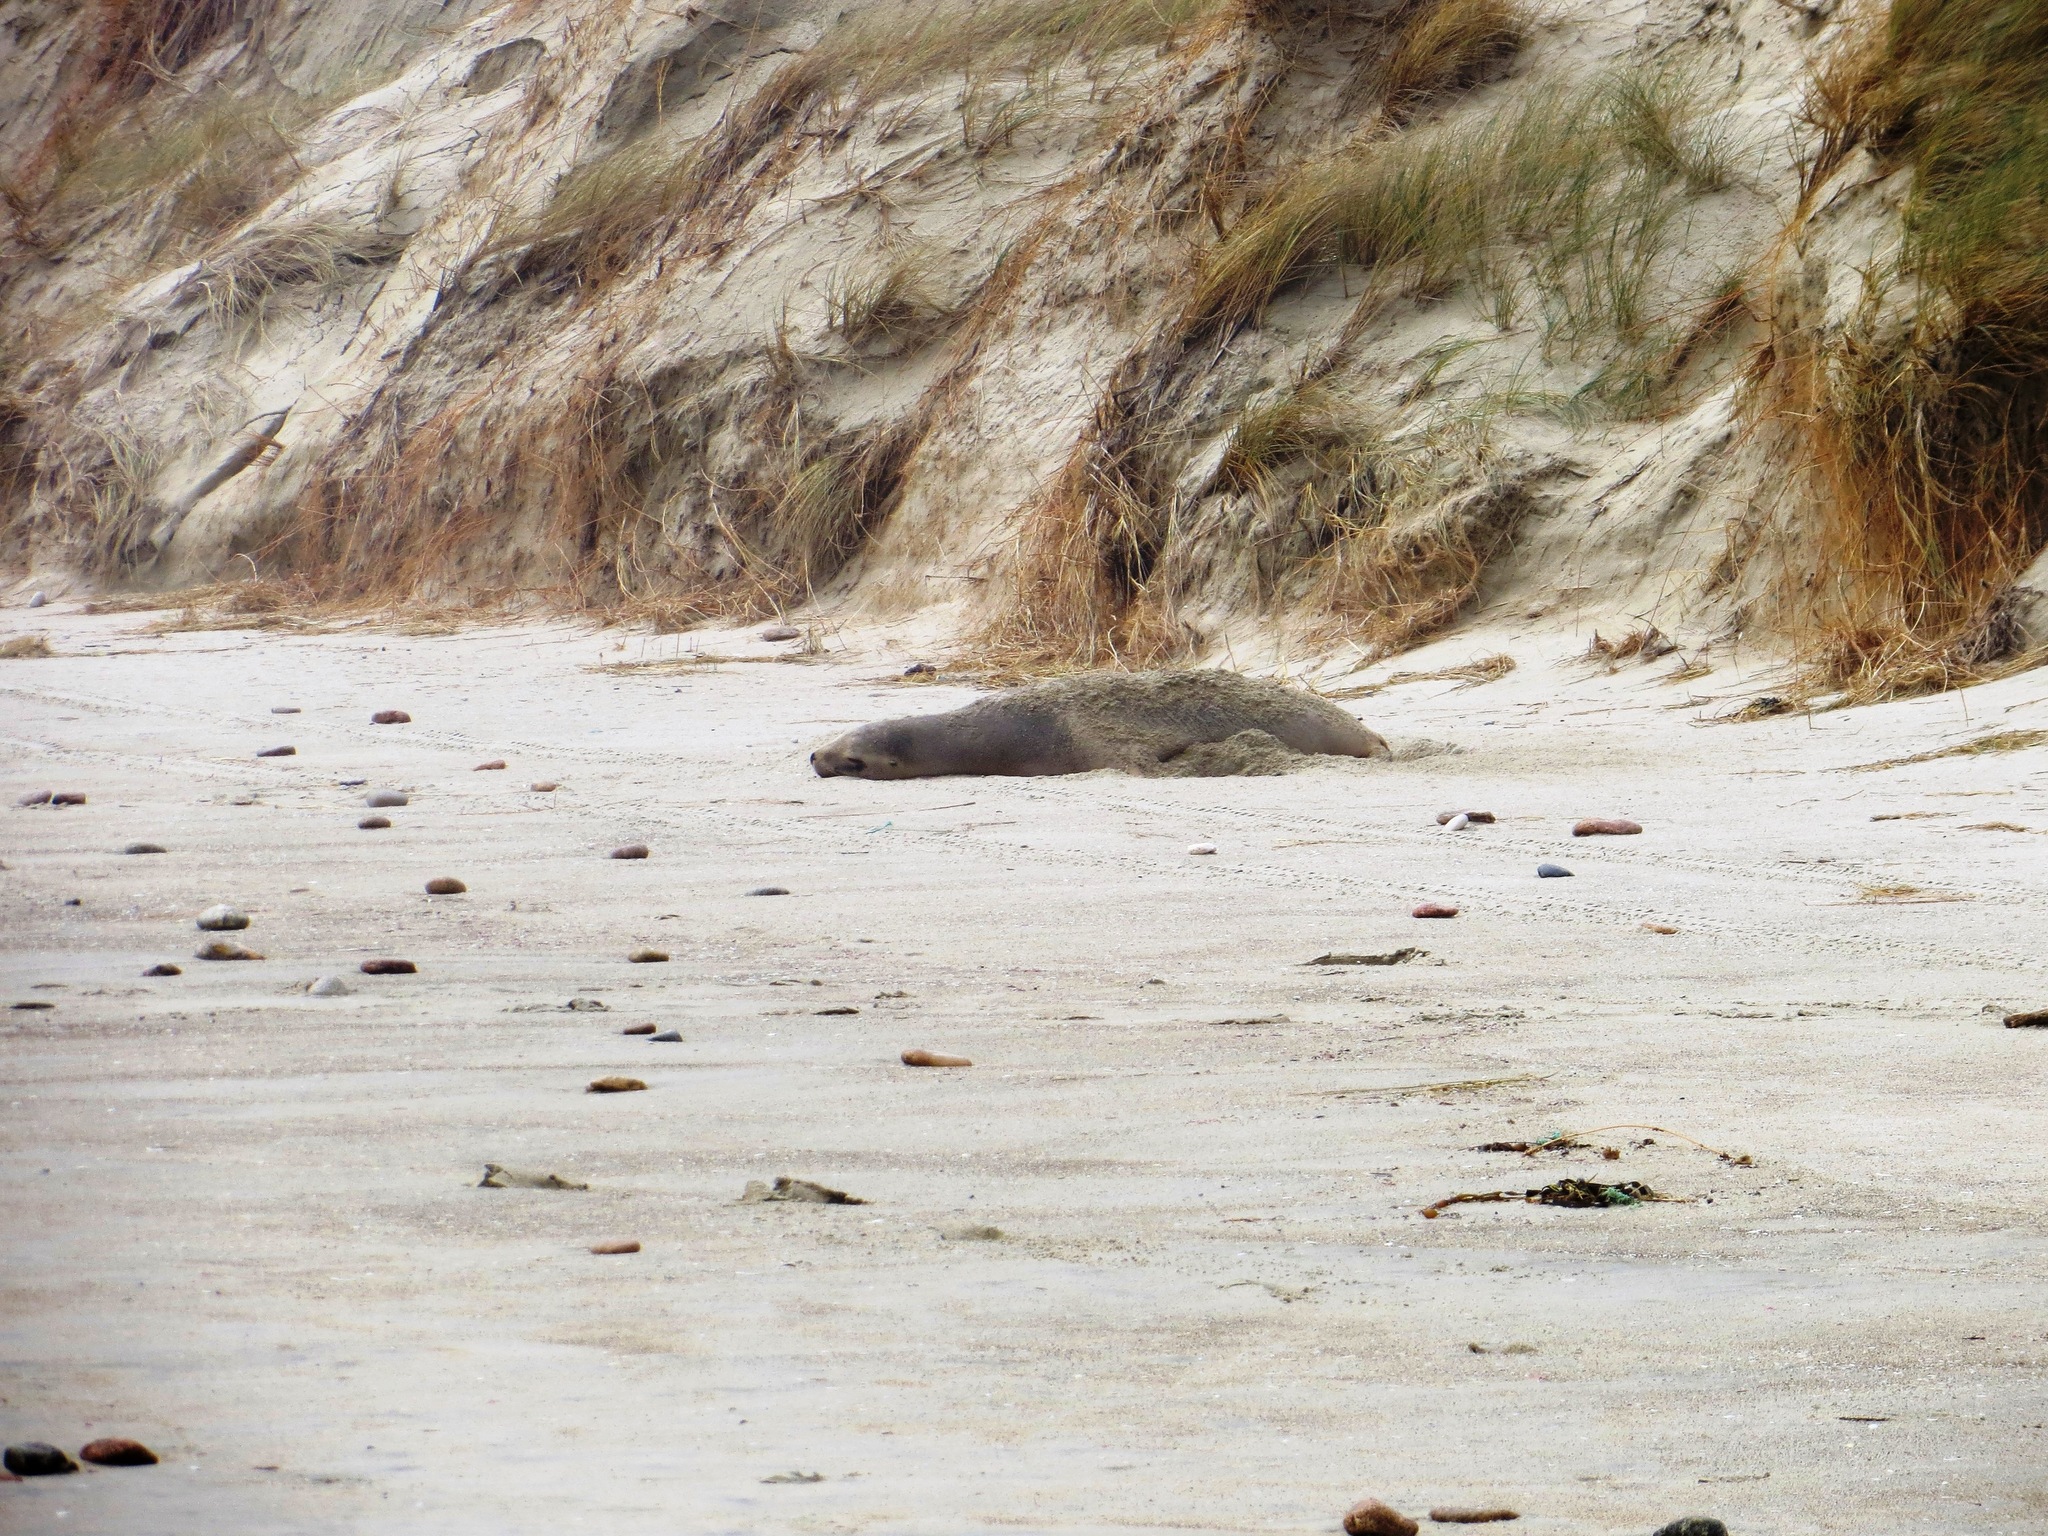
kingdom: Animalia
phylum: Chordata
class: Mammalia
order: Carnivora
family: Otariidae
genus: Phocarctos
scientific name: Phocarctos hookeri
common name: New zealand sea lion
